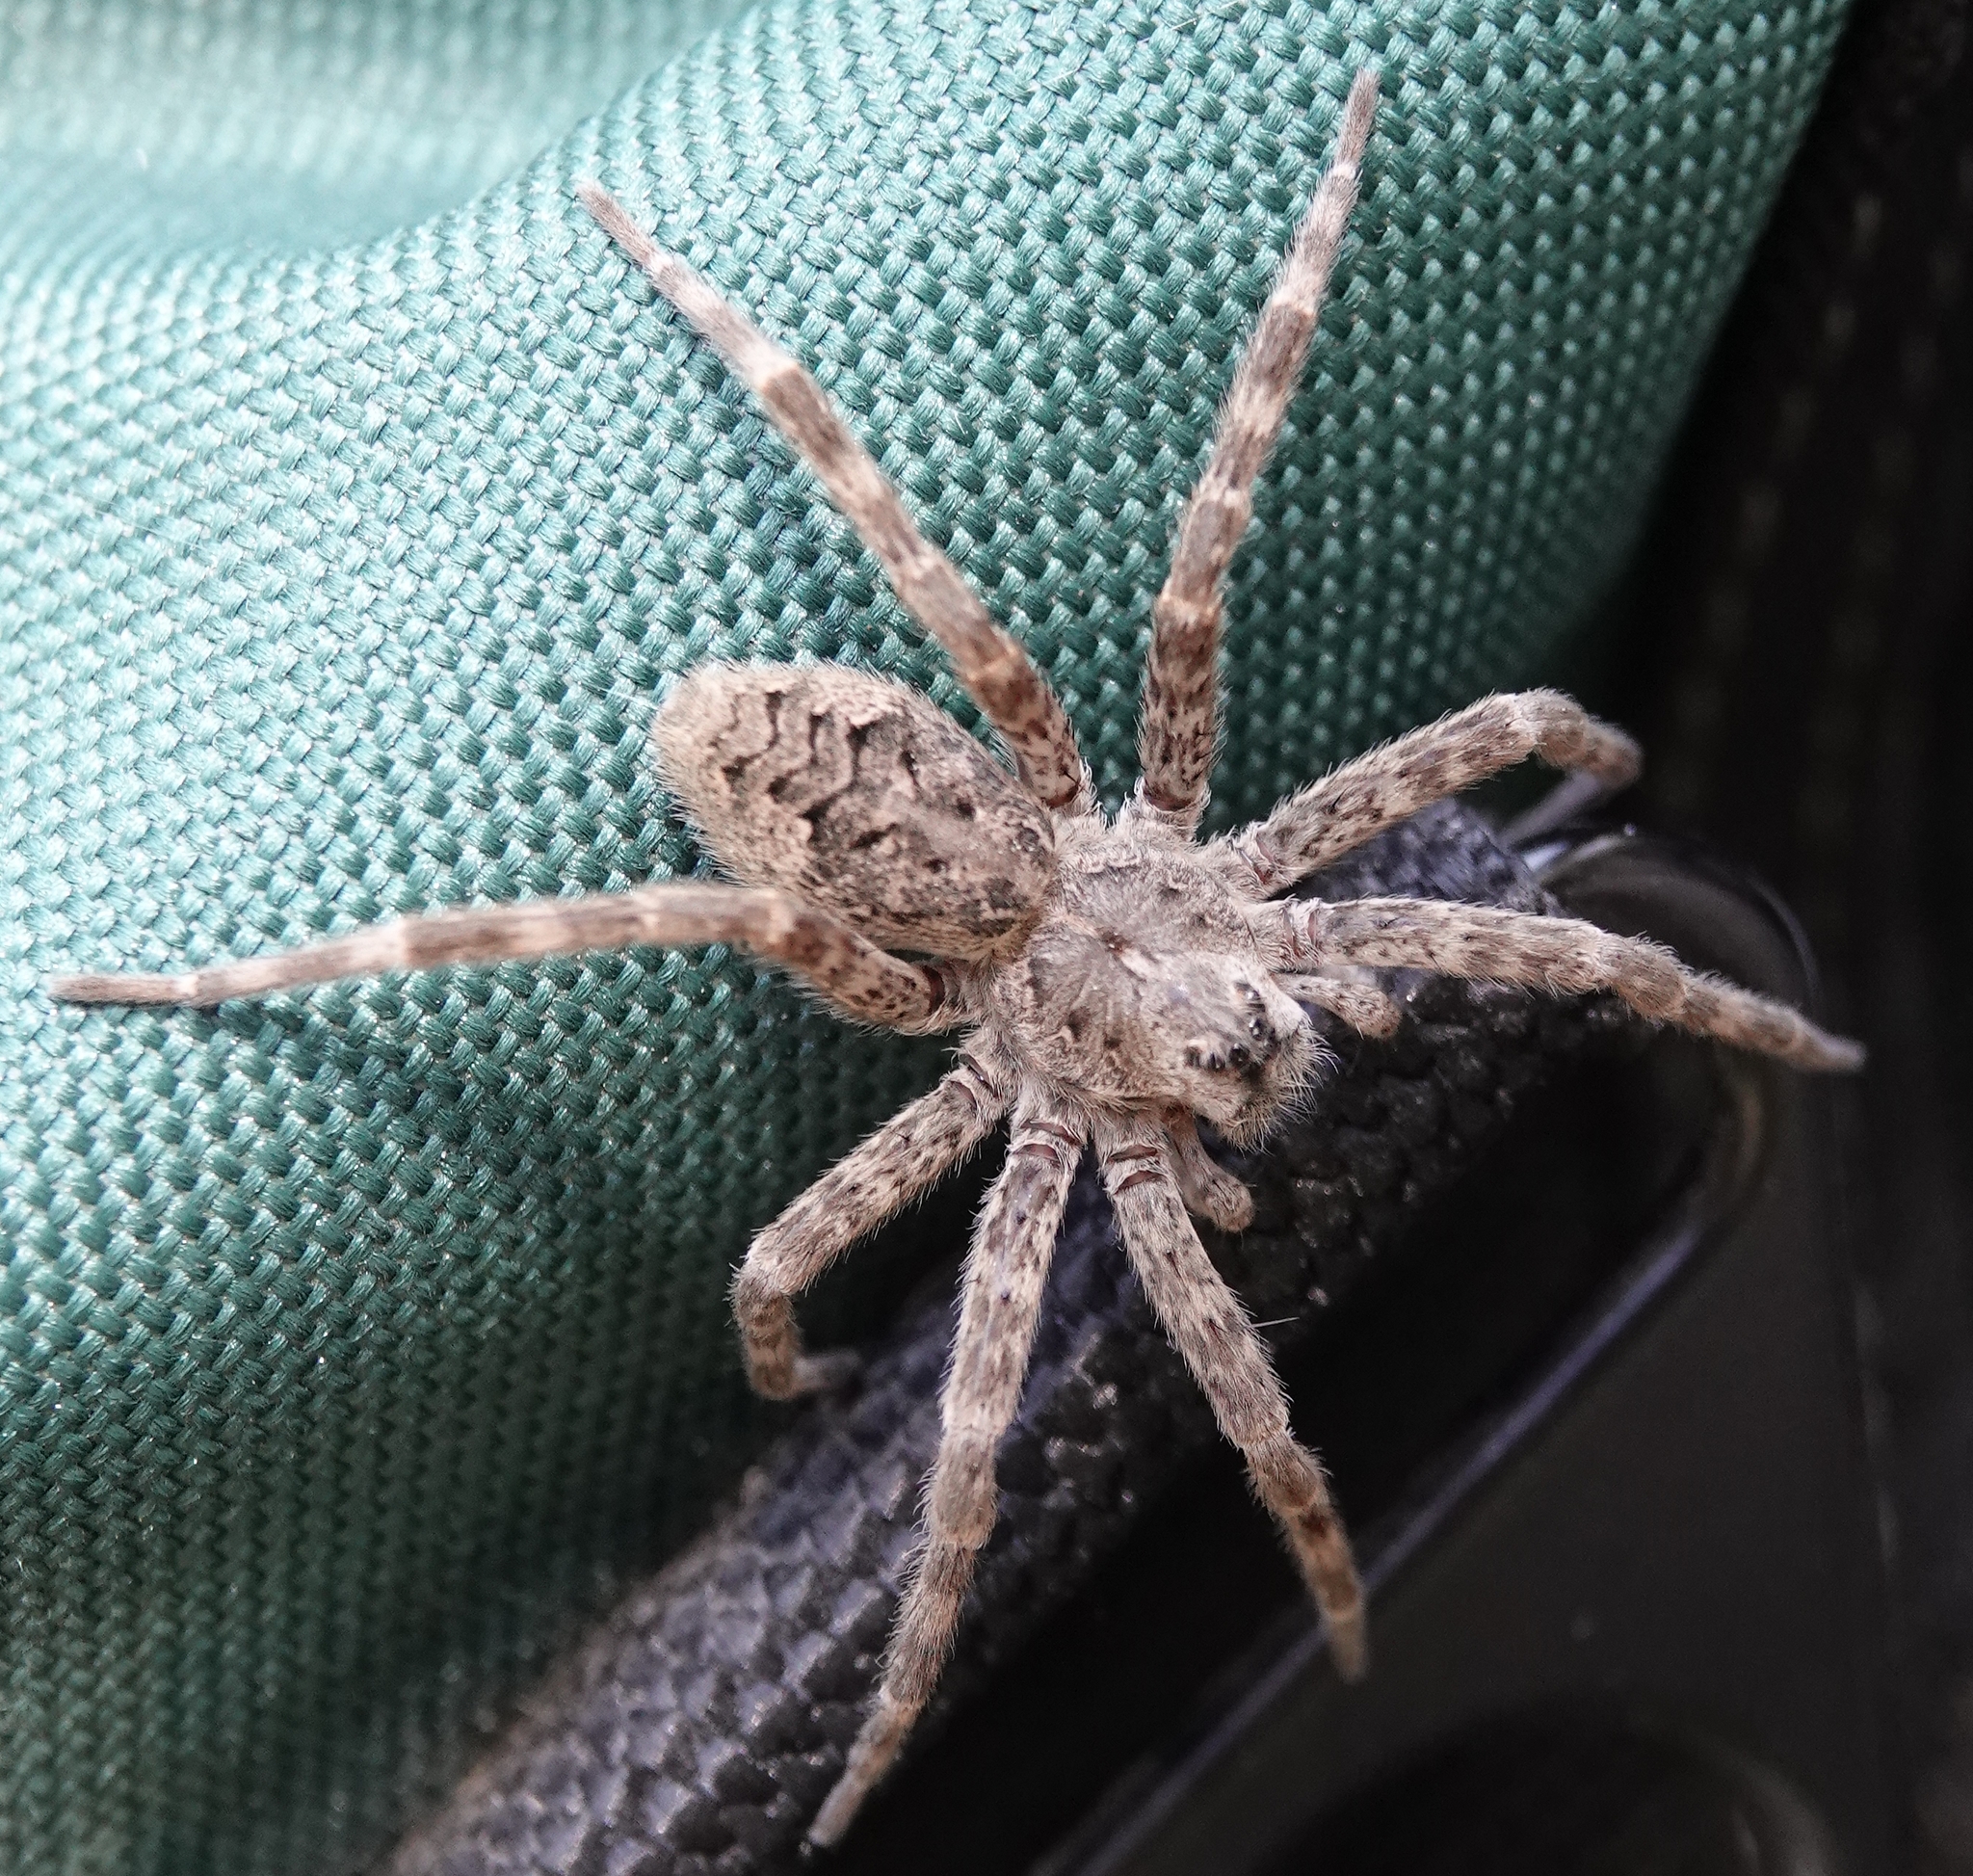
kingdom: Animalia
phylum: Arthropoda
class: Arachnida
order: Araneae
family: Pisauridae
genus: Dolomedes
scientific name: Dolomedes tenebrosus
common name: Dark fishing spider
